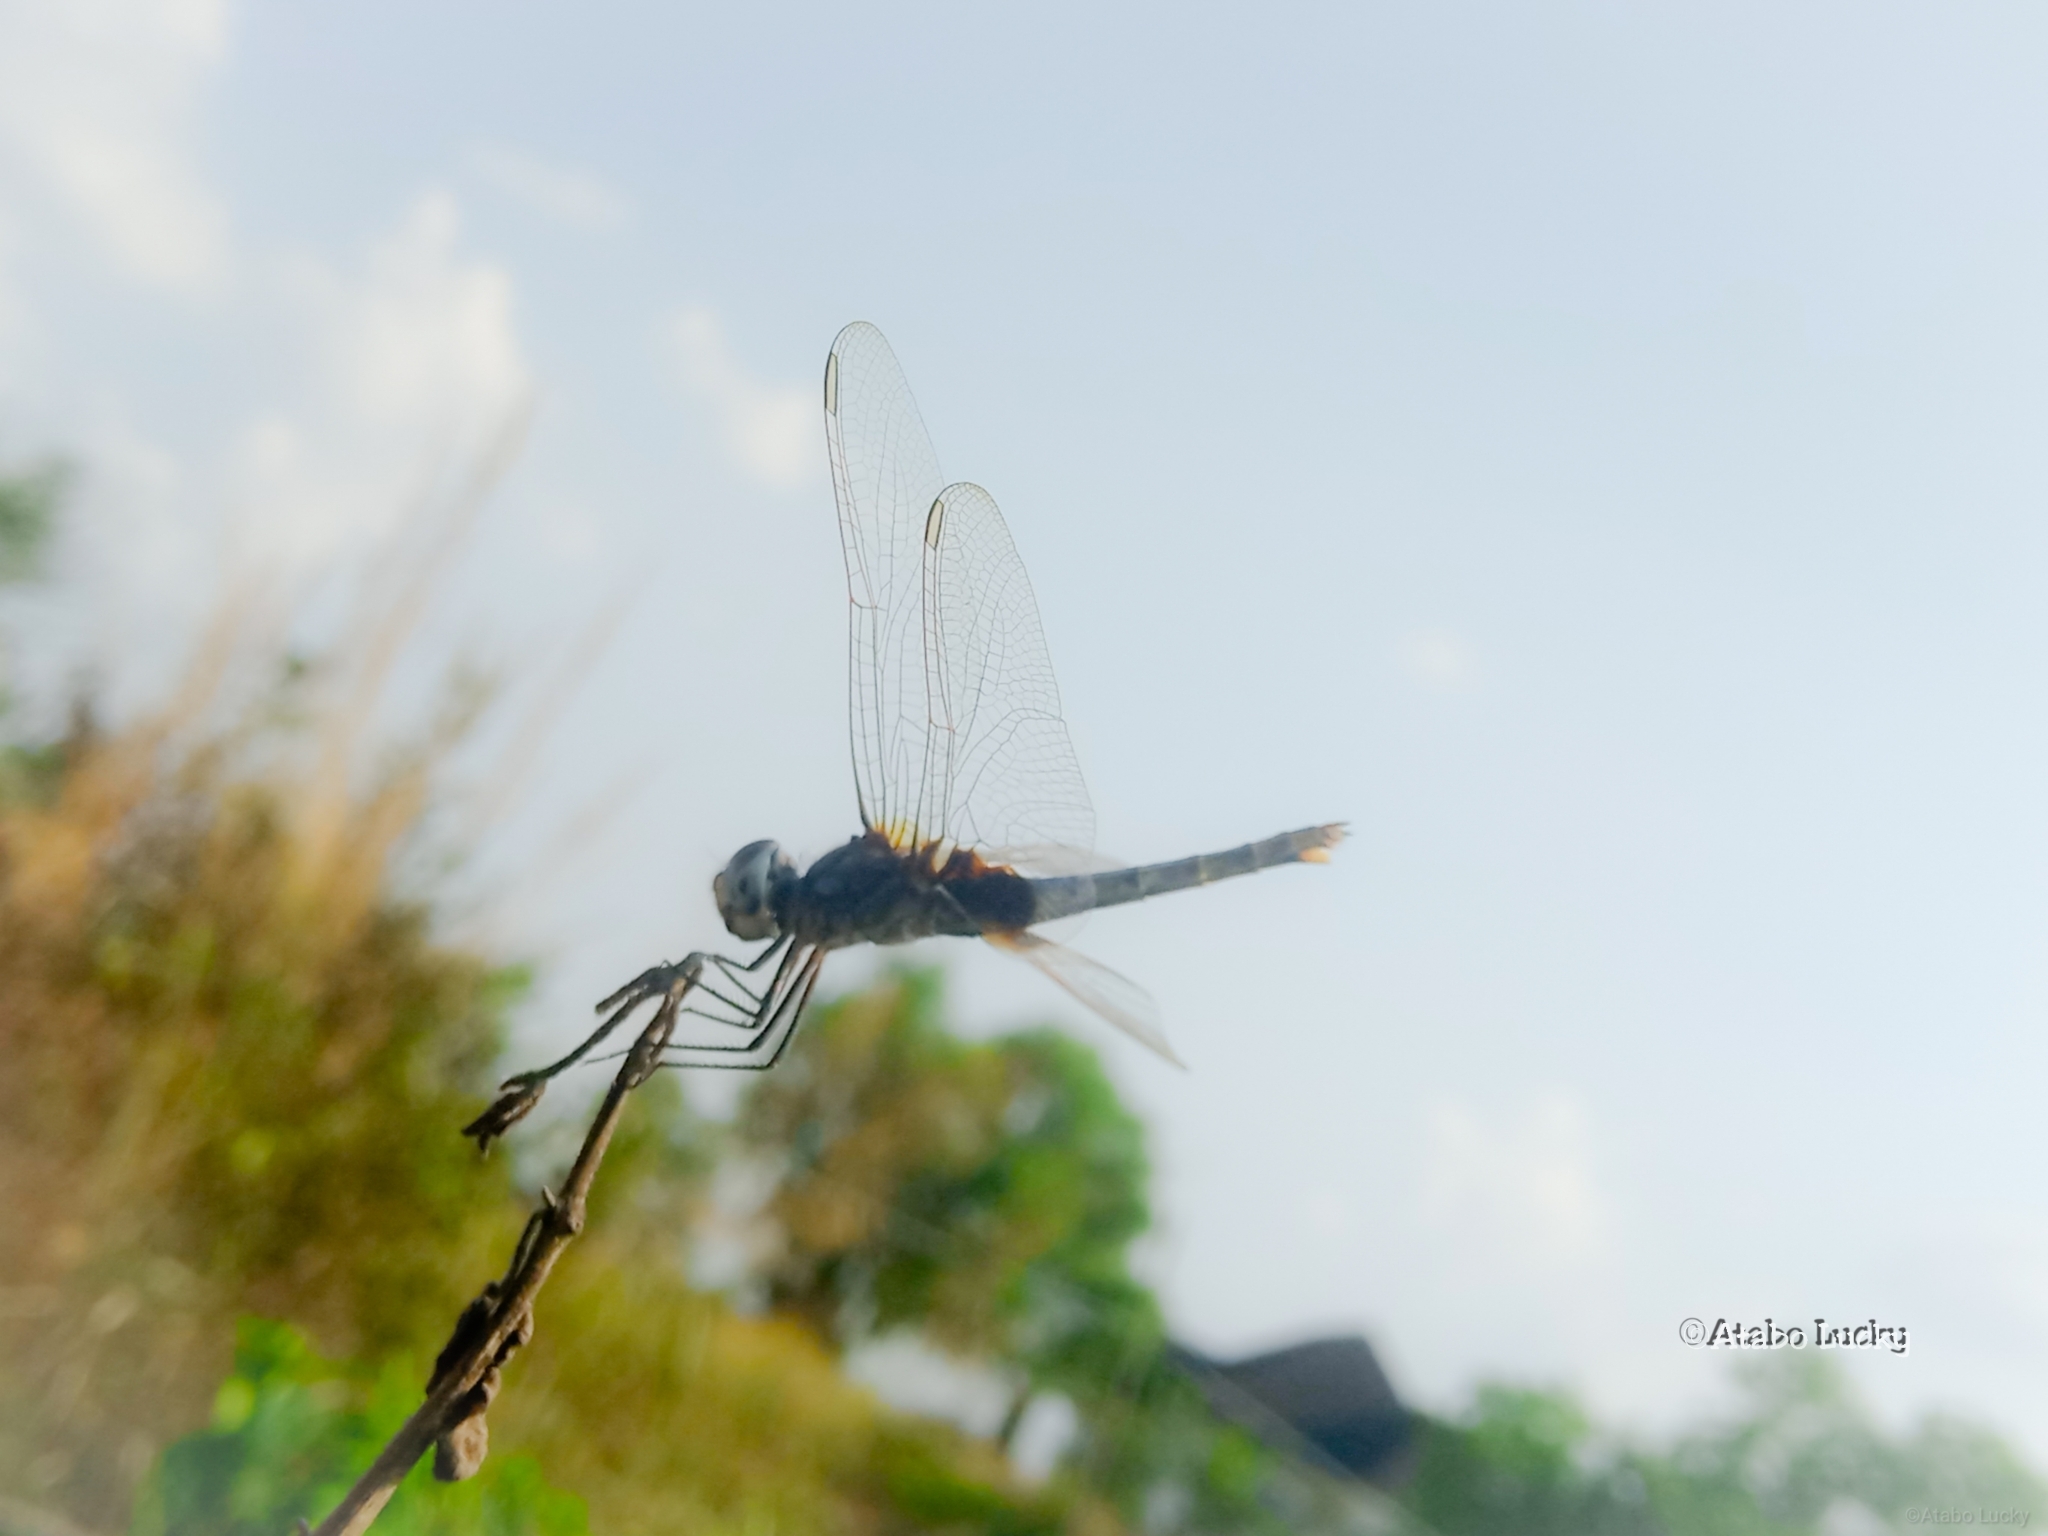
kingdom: Animalia
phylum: Arthropoda
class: Insecta
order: Odonata
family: Libellulidae
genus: Urothemis
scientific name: Urothemis edwardsii
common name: Blue basker
